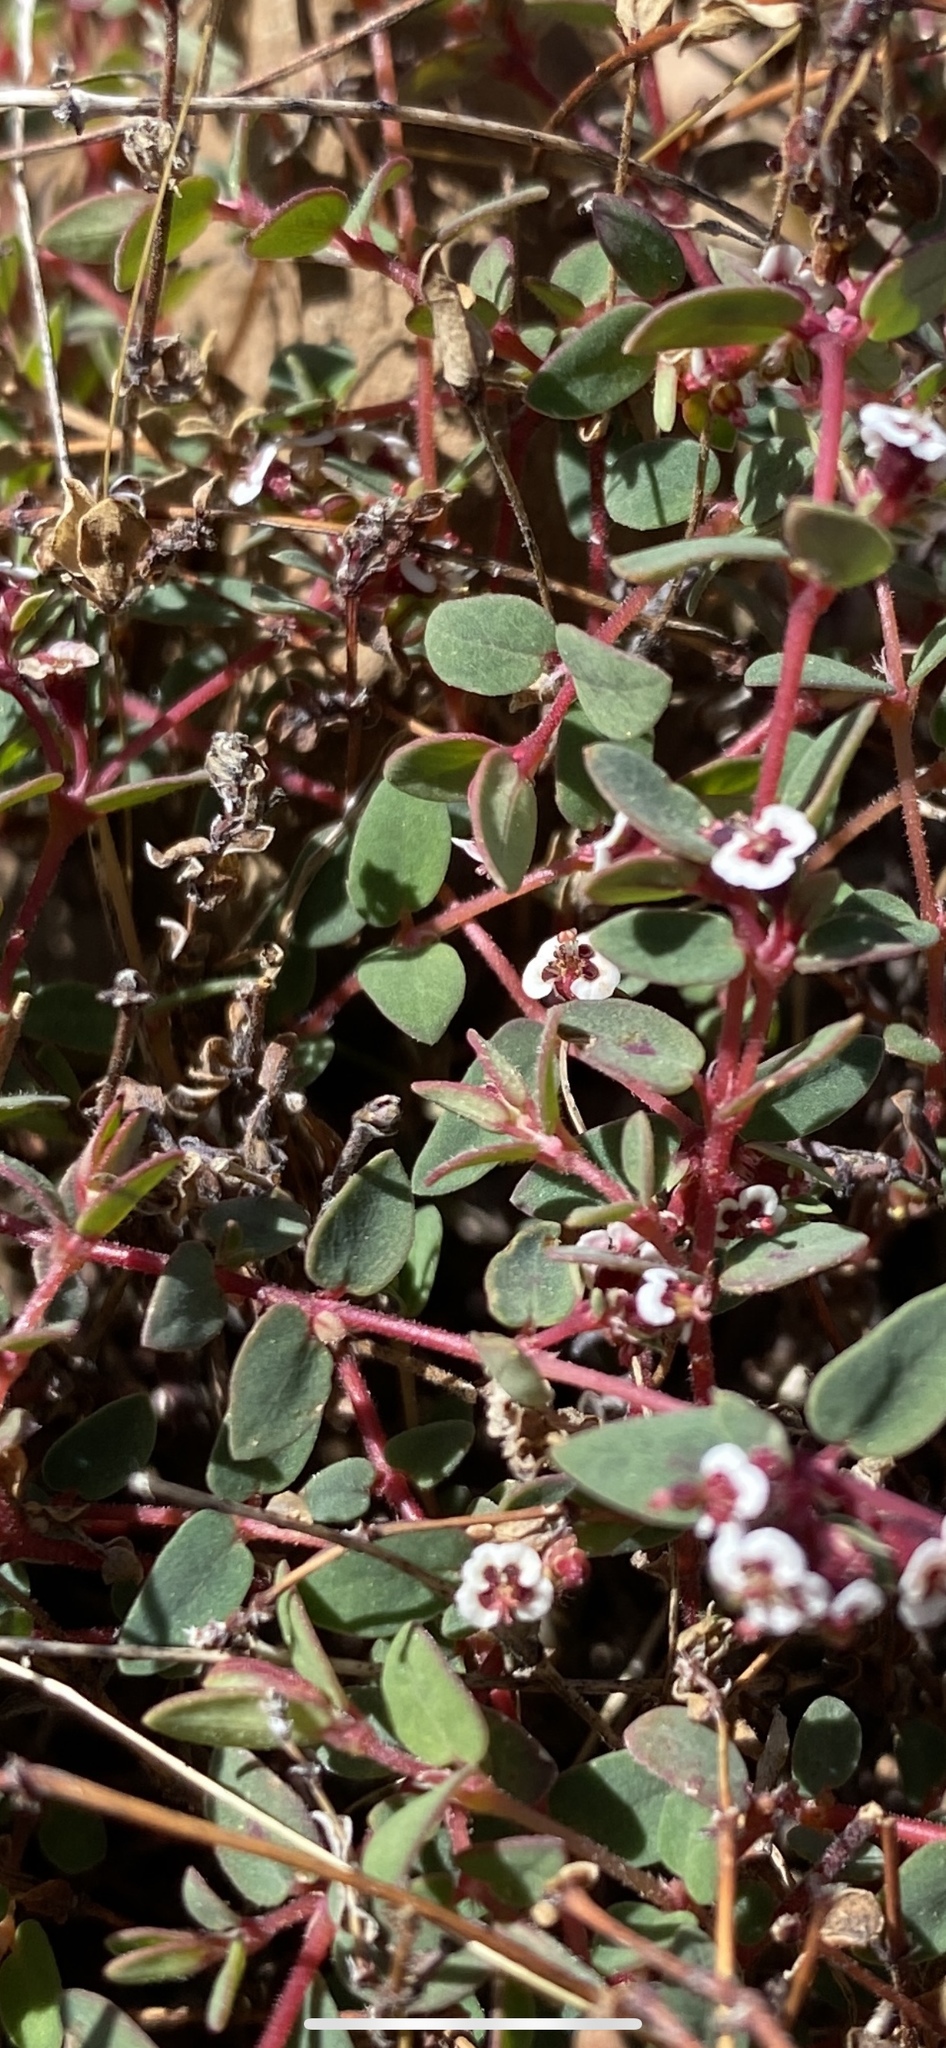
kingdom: Plantae
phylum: Tracheophyta
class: Magnoliopsida
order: Malpighiales
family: Euphorbiaceae
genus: Euphorbia
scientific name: Euphorbia capitellata
